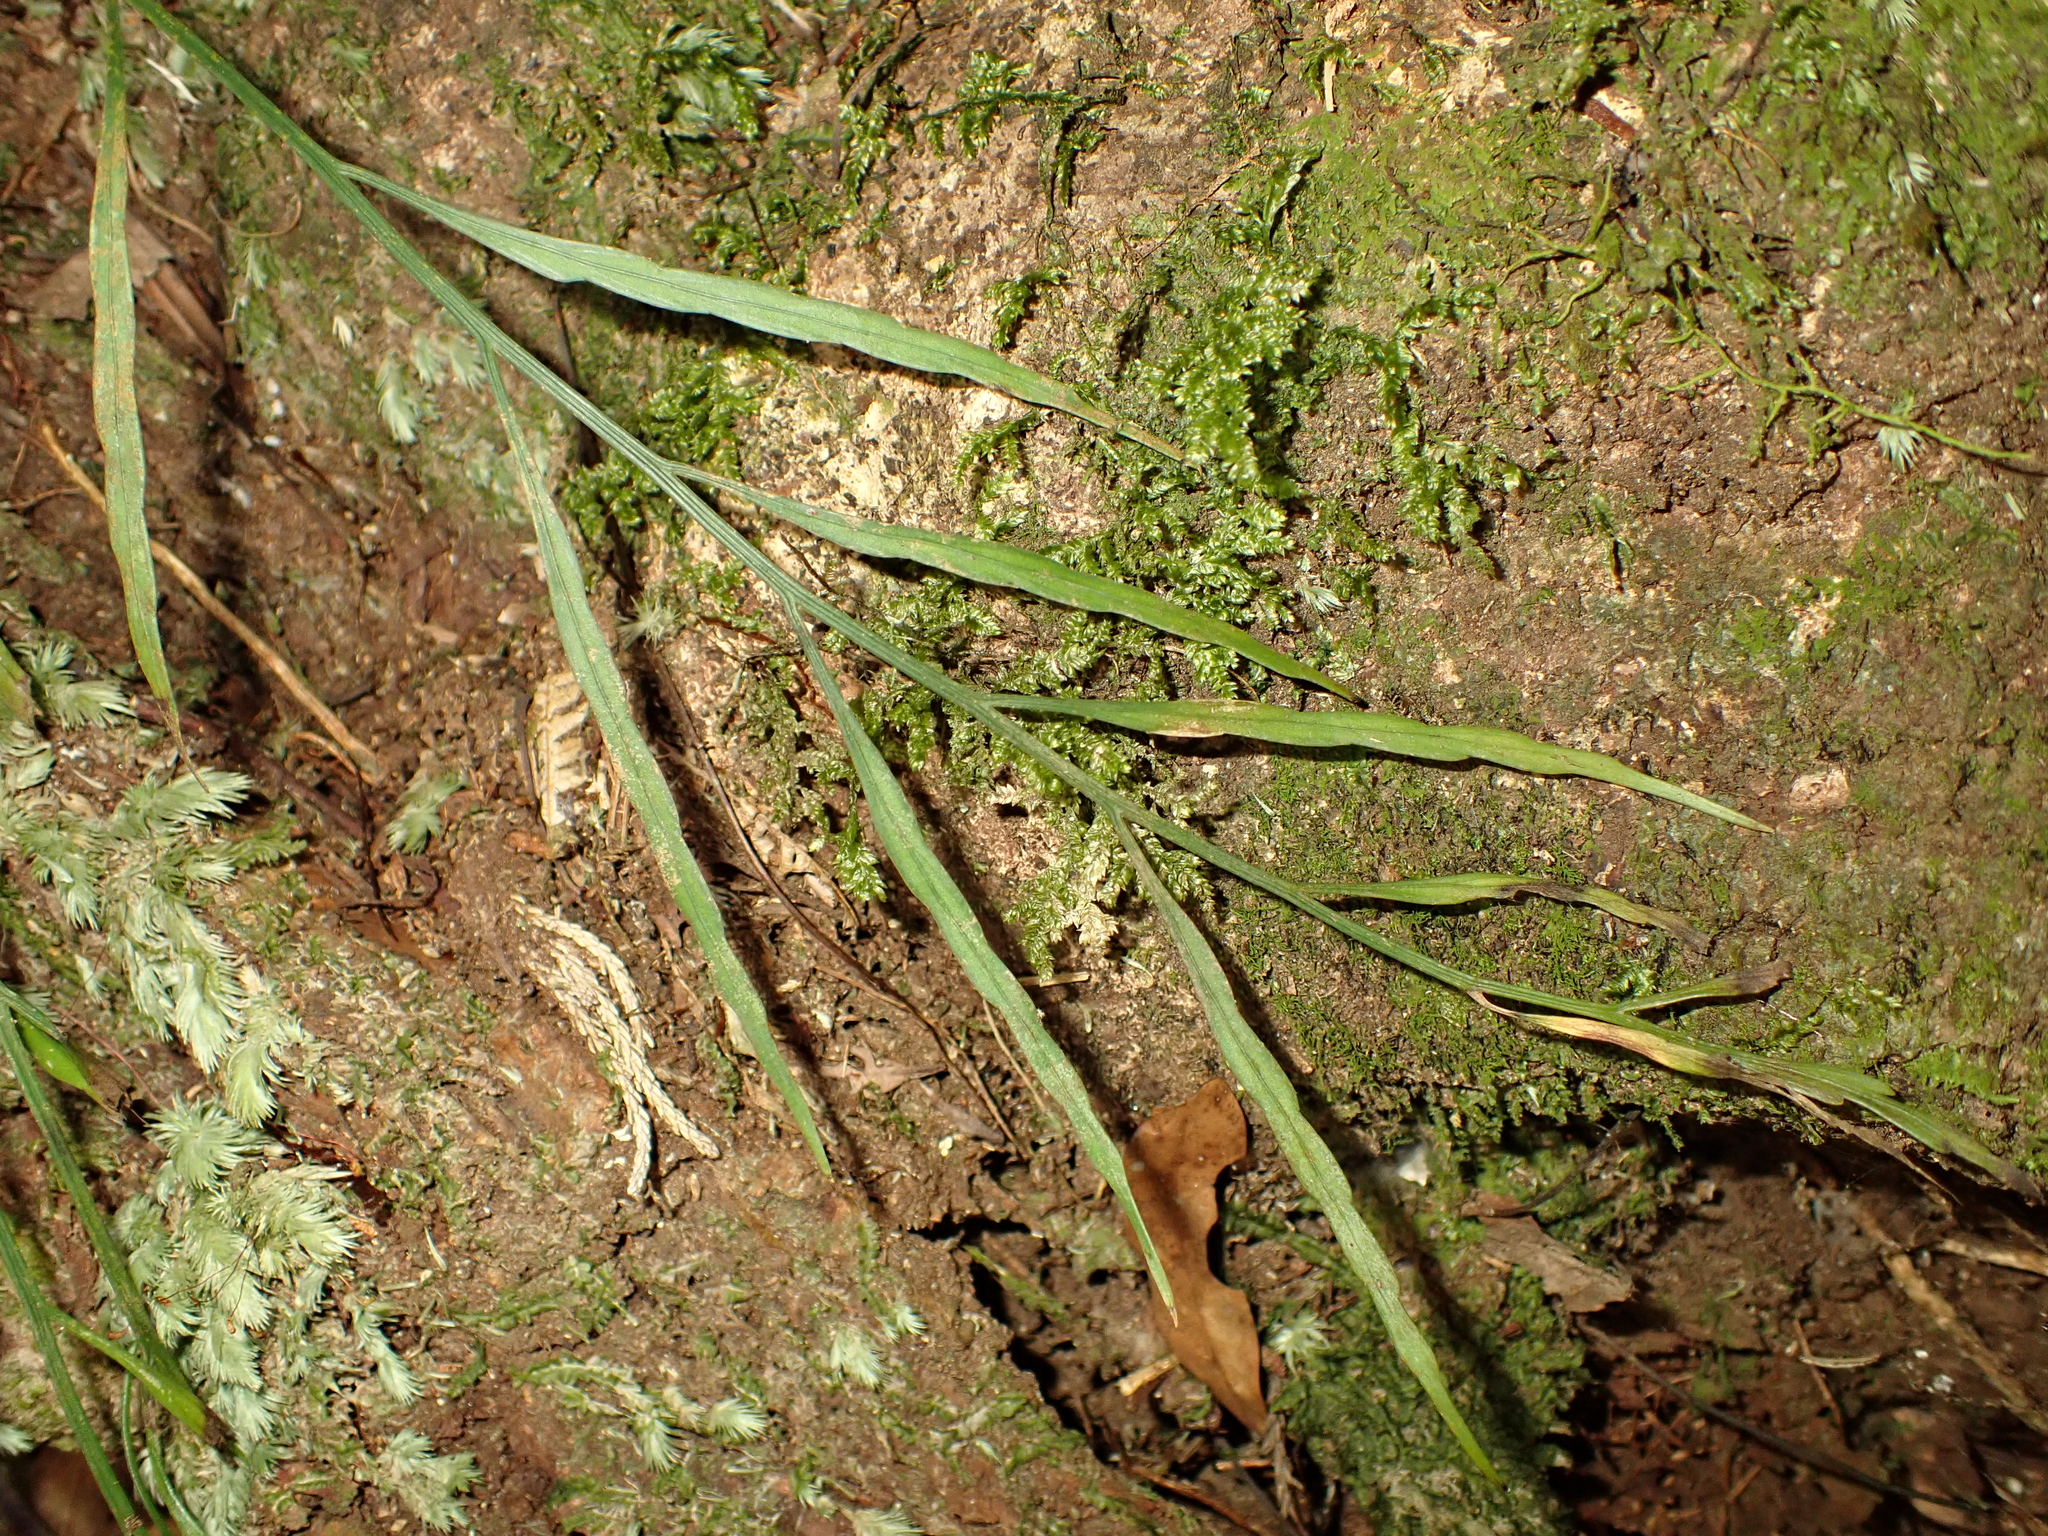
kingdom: Plantae
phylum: Tracheophyta
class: Polypodiopsida
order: Polypodiales
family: Aspleniaceae
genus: Asplenium
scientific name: Asplenium flaccidum
